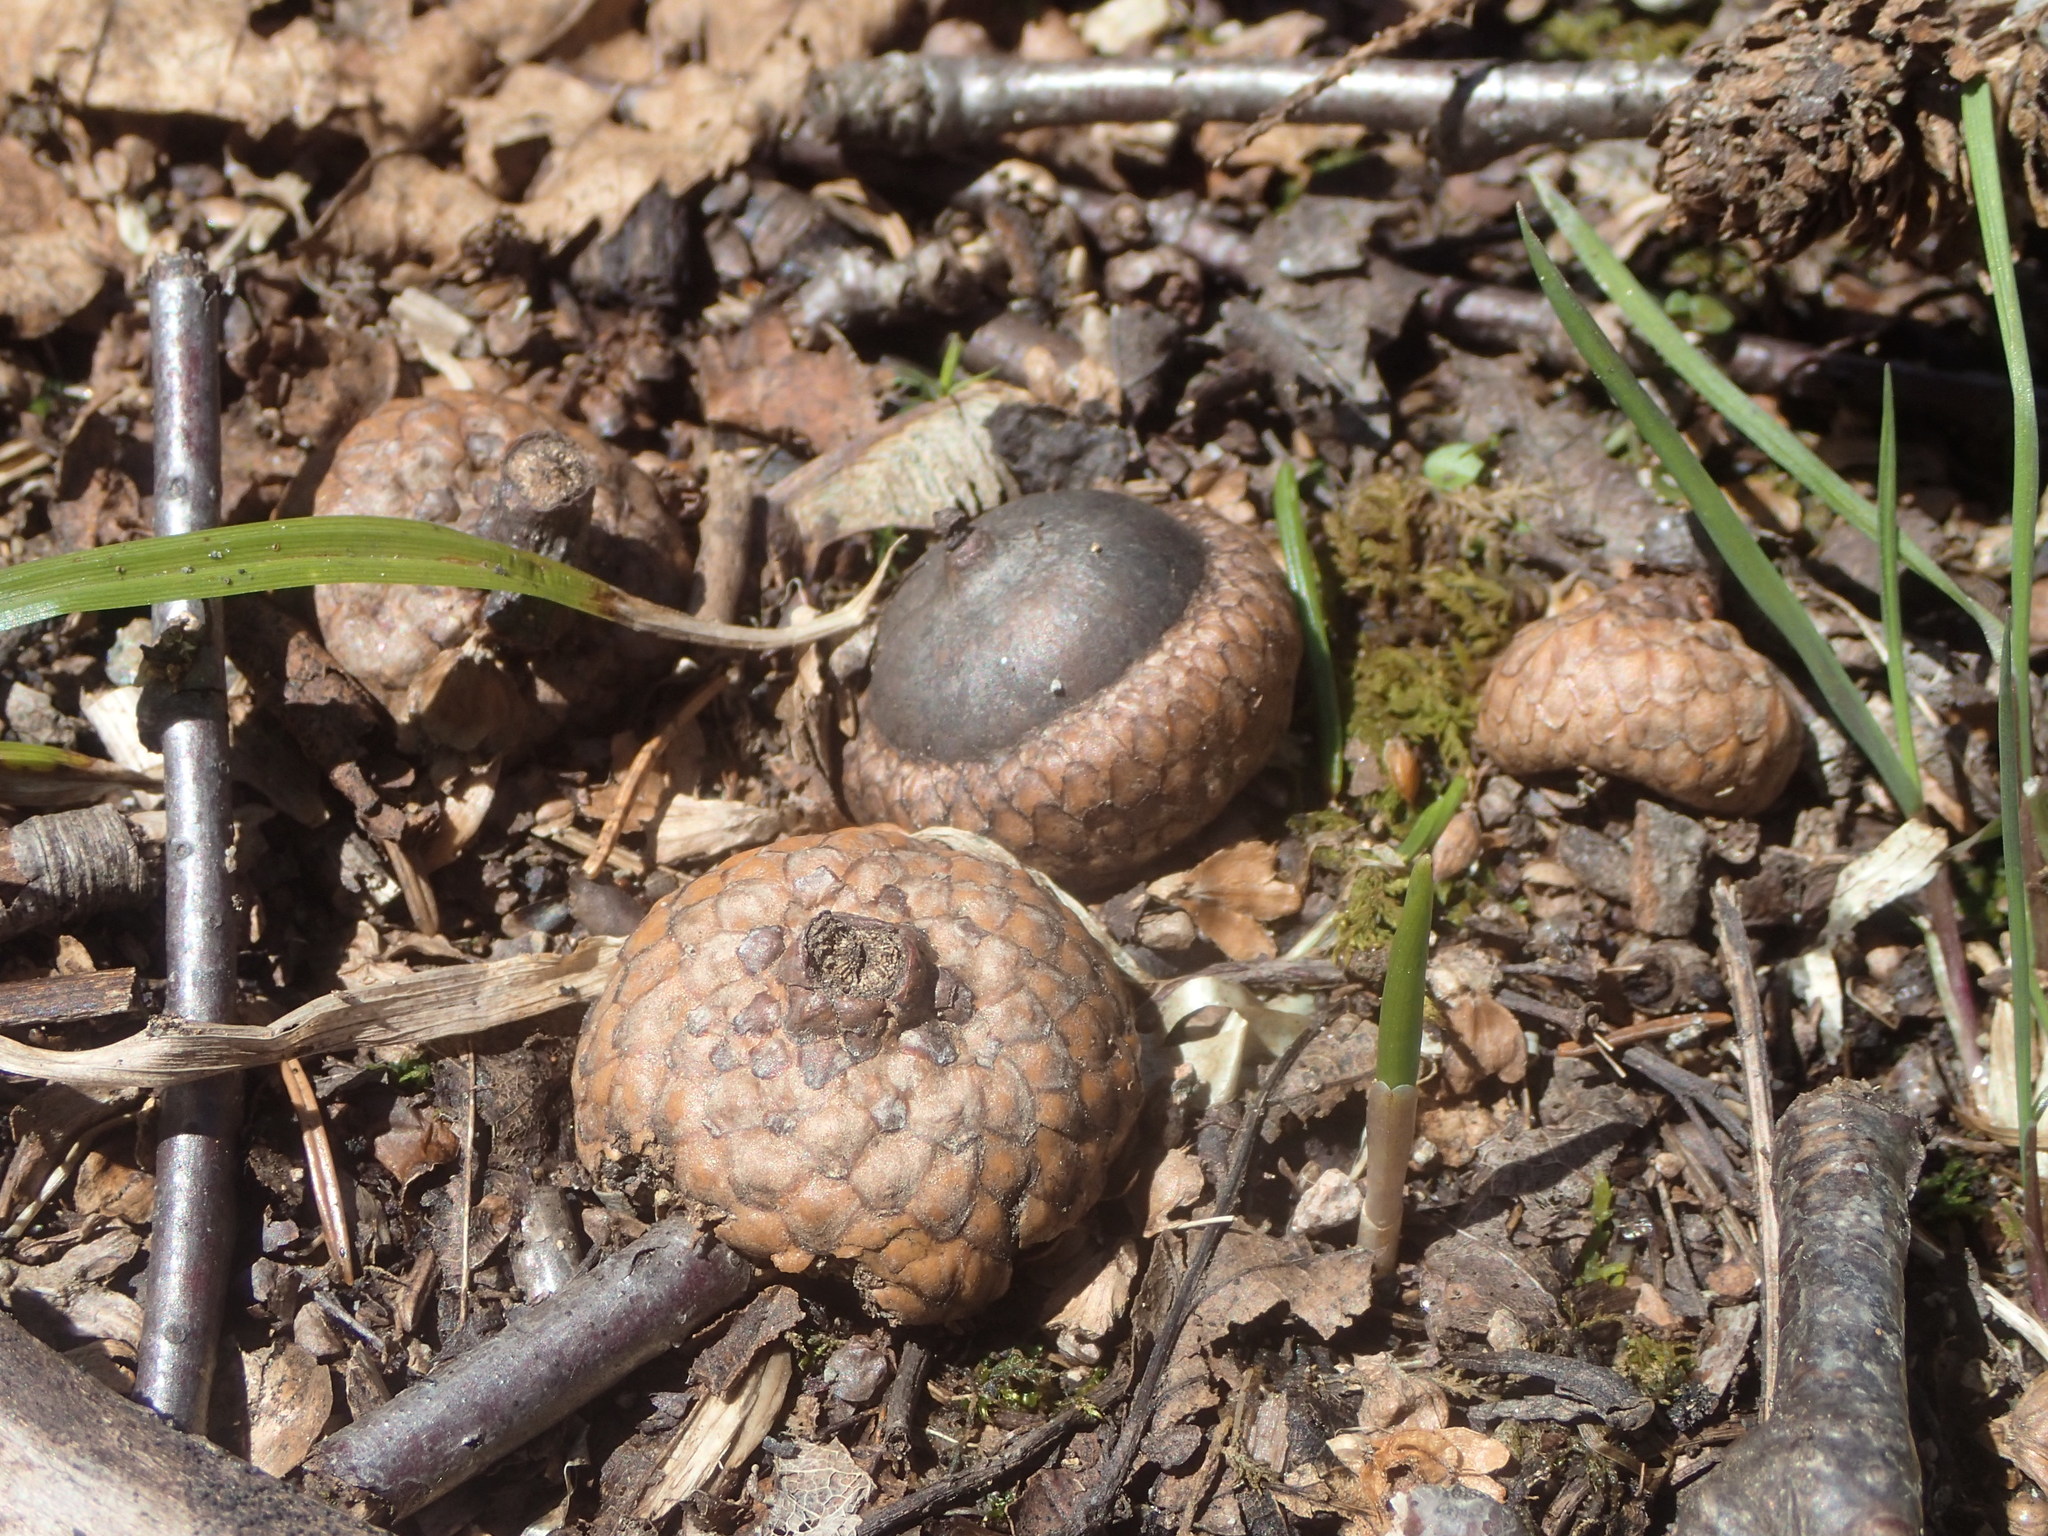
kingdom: Plantae
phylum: Tracheophyta
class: Magnoliopsida
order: Fagales
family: Fagaceae
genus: Quercus
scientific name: Quercus rubra
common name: Red oak
